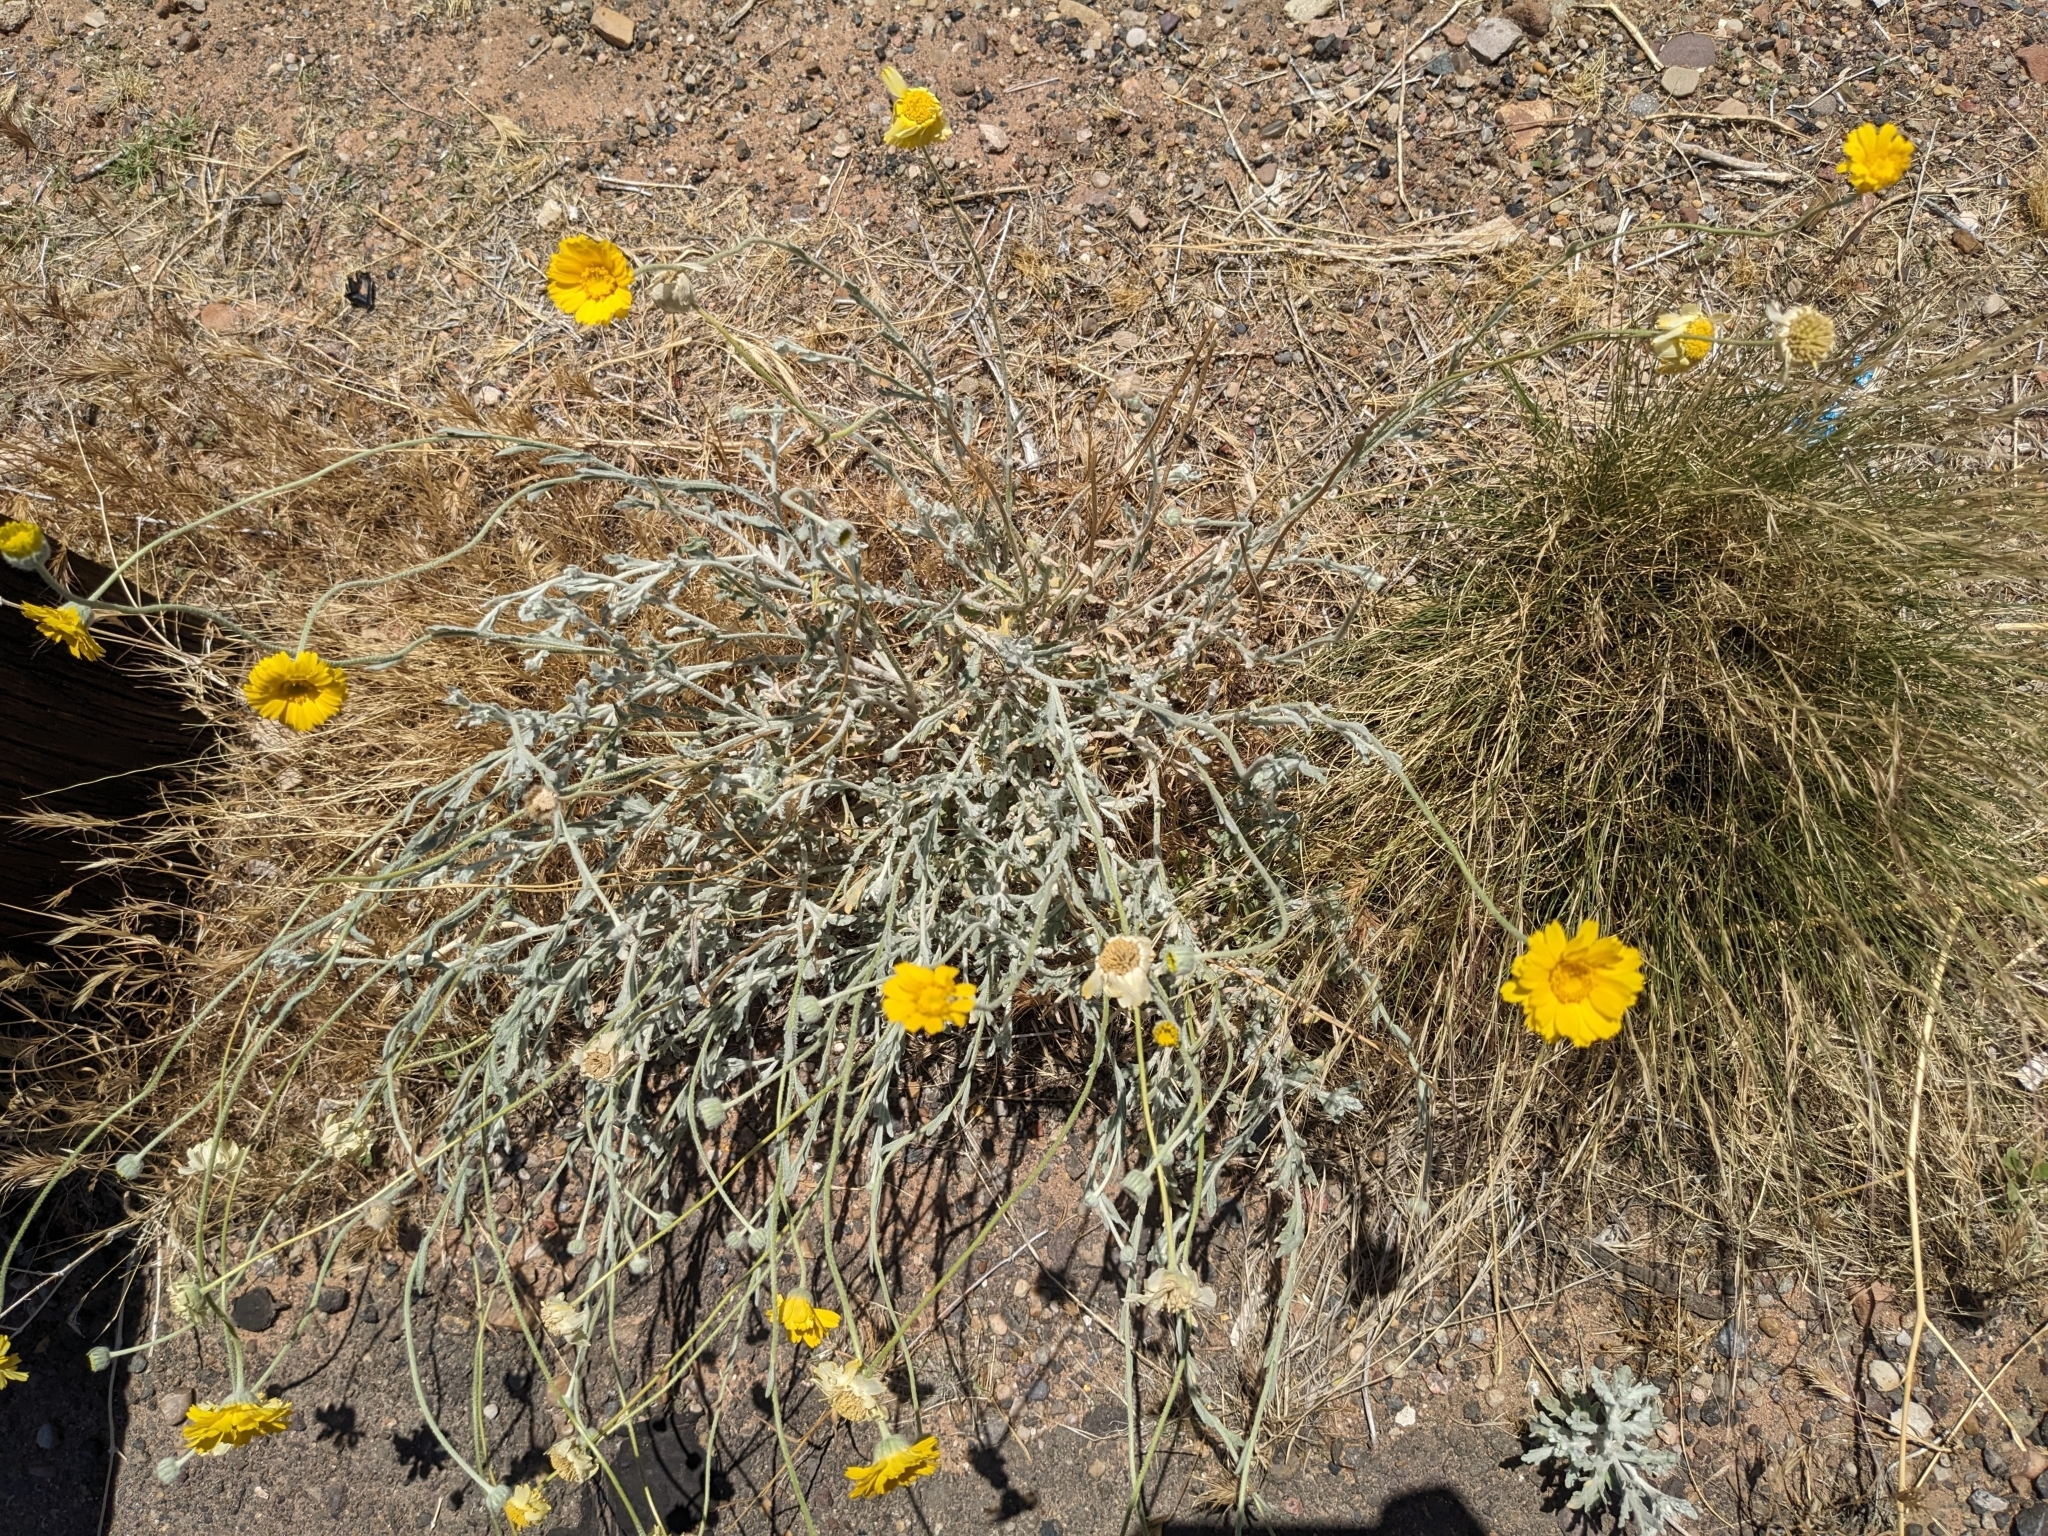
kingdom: Plantae
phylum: Tracheophyta
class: Magnoliopsida
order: Asterales
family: Asteraceae
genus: Baileya
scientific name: Baileya multiradiata
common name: Desert-marigold
